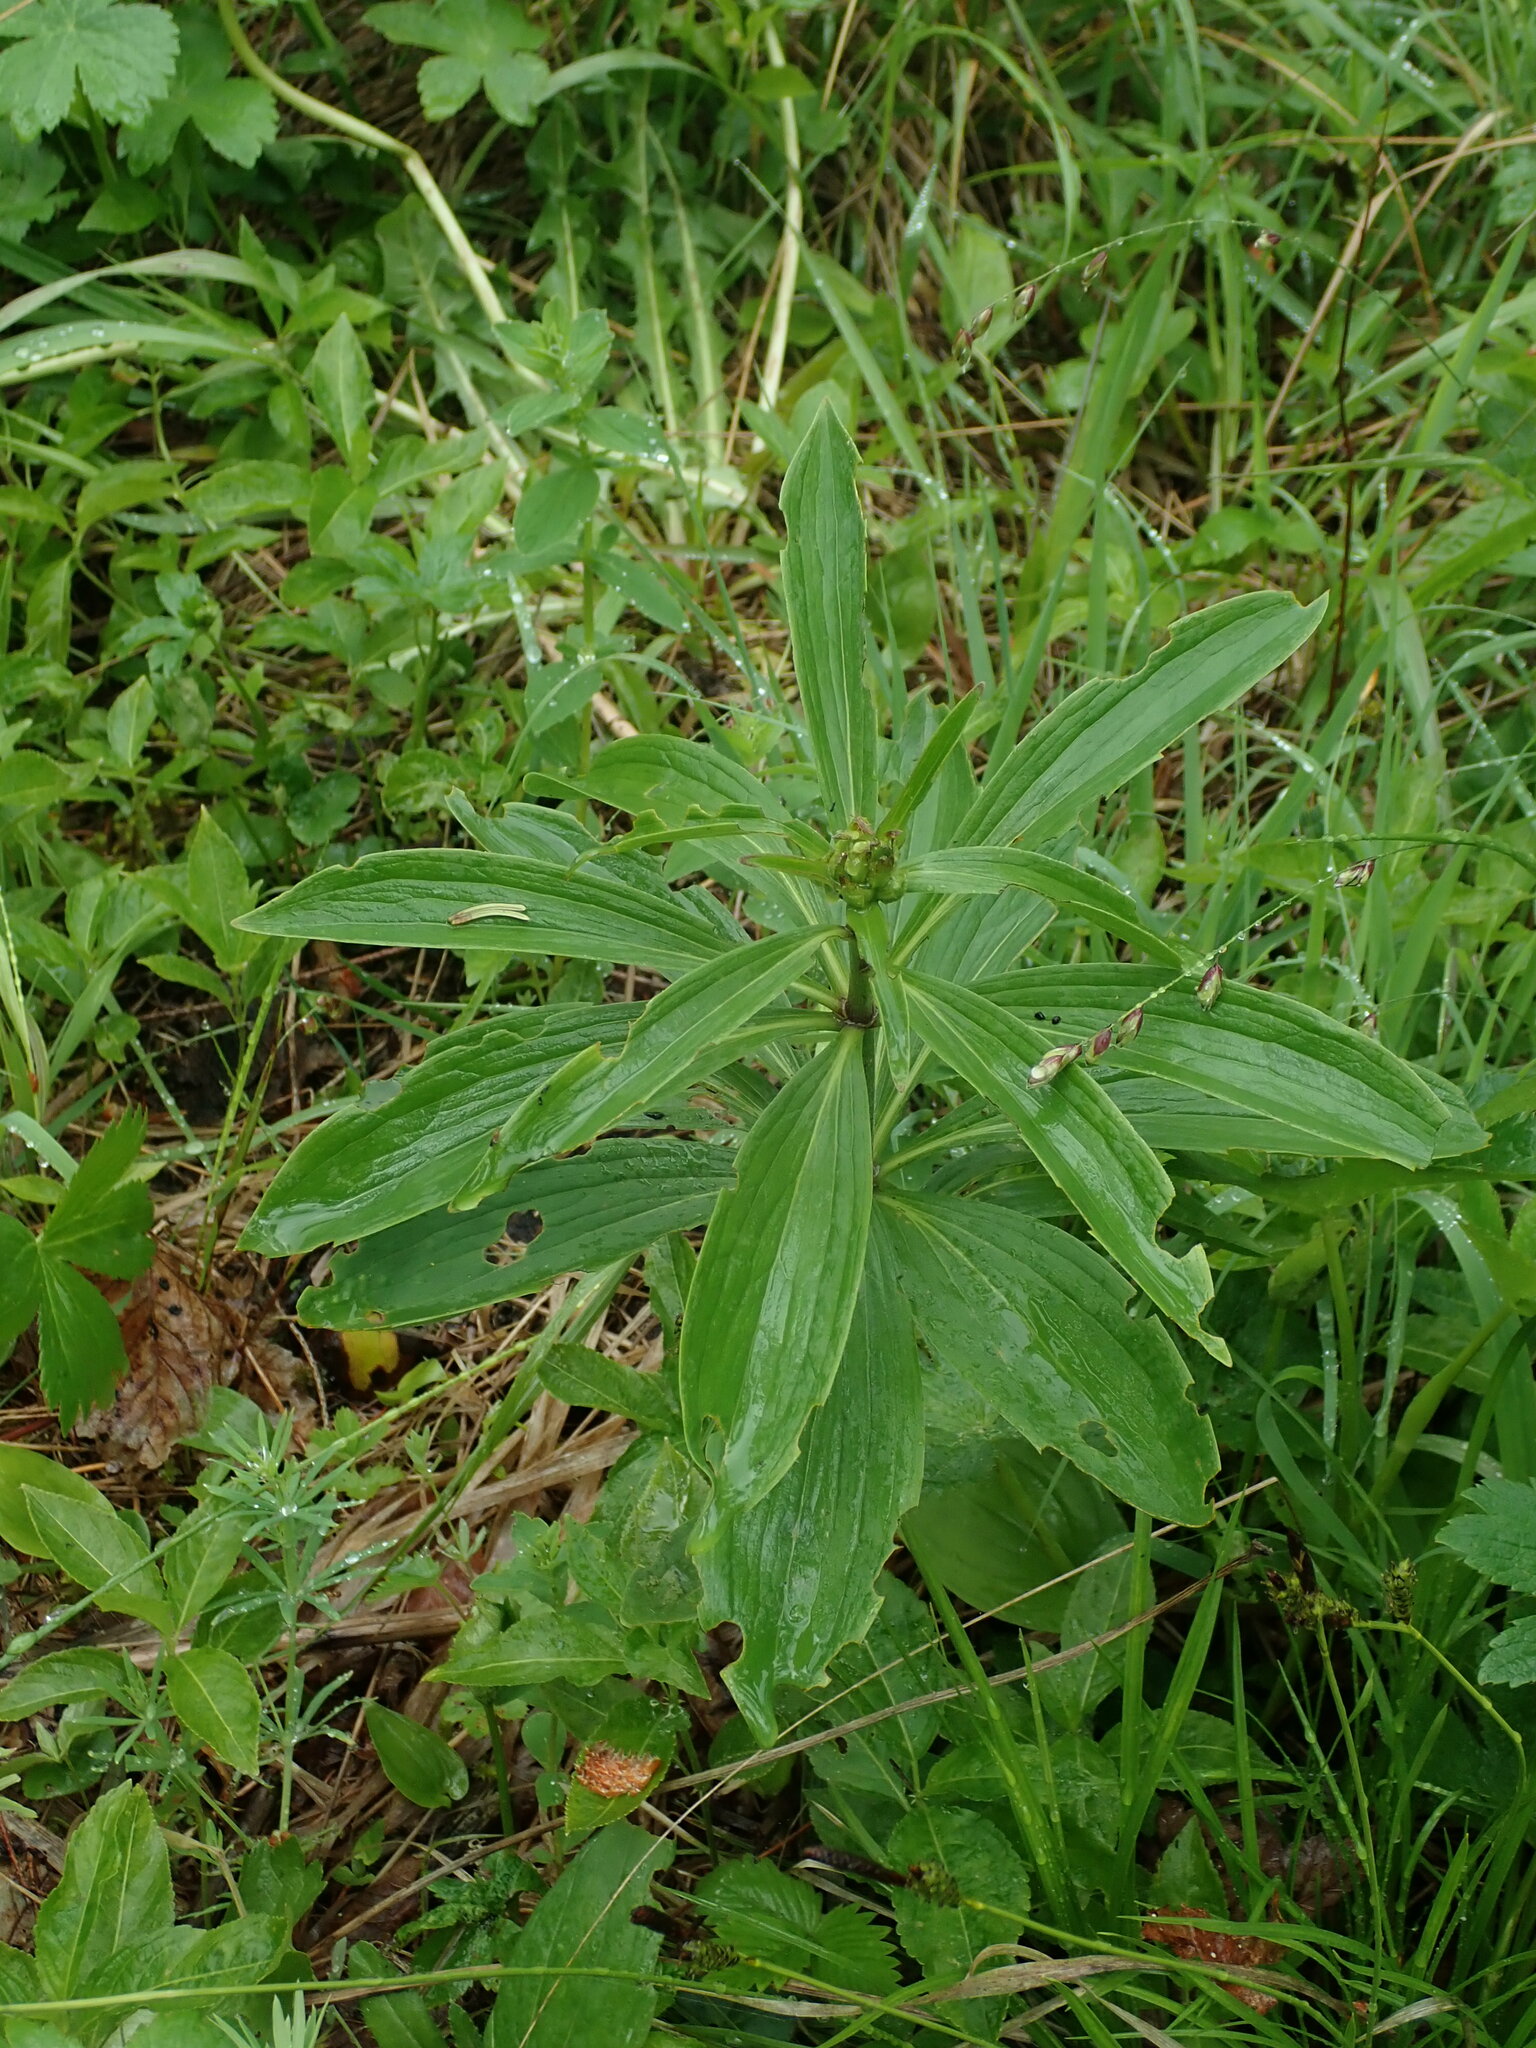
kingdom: Plantae
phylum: Tracheophyta
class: Liliopsida
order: Liliales
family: Liliaceae
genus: Lilium
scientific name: Lilium martagon
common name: Martagon lily
